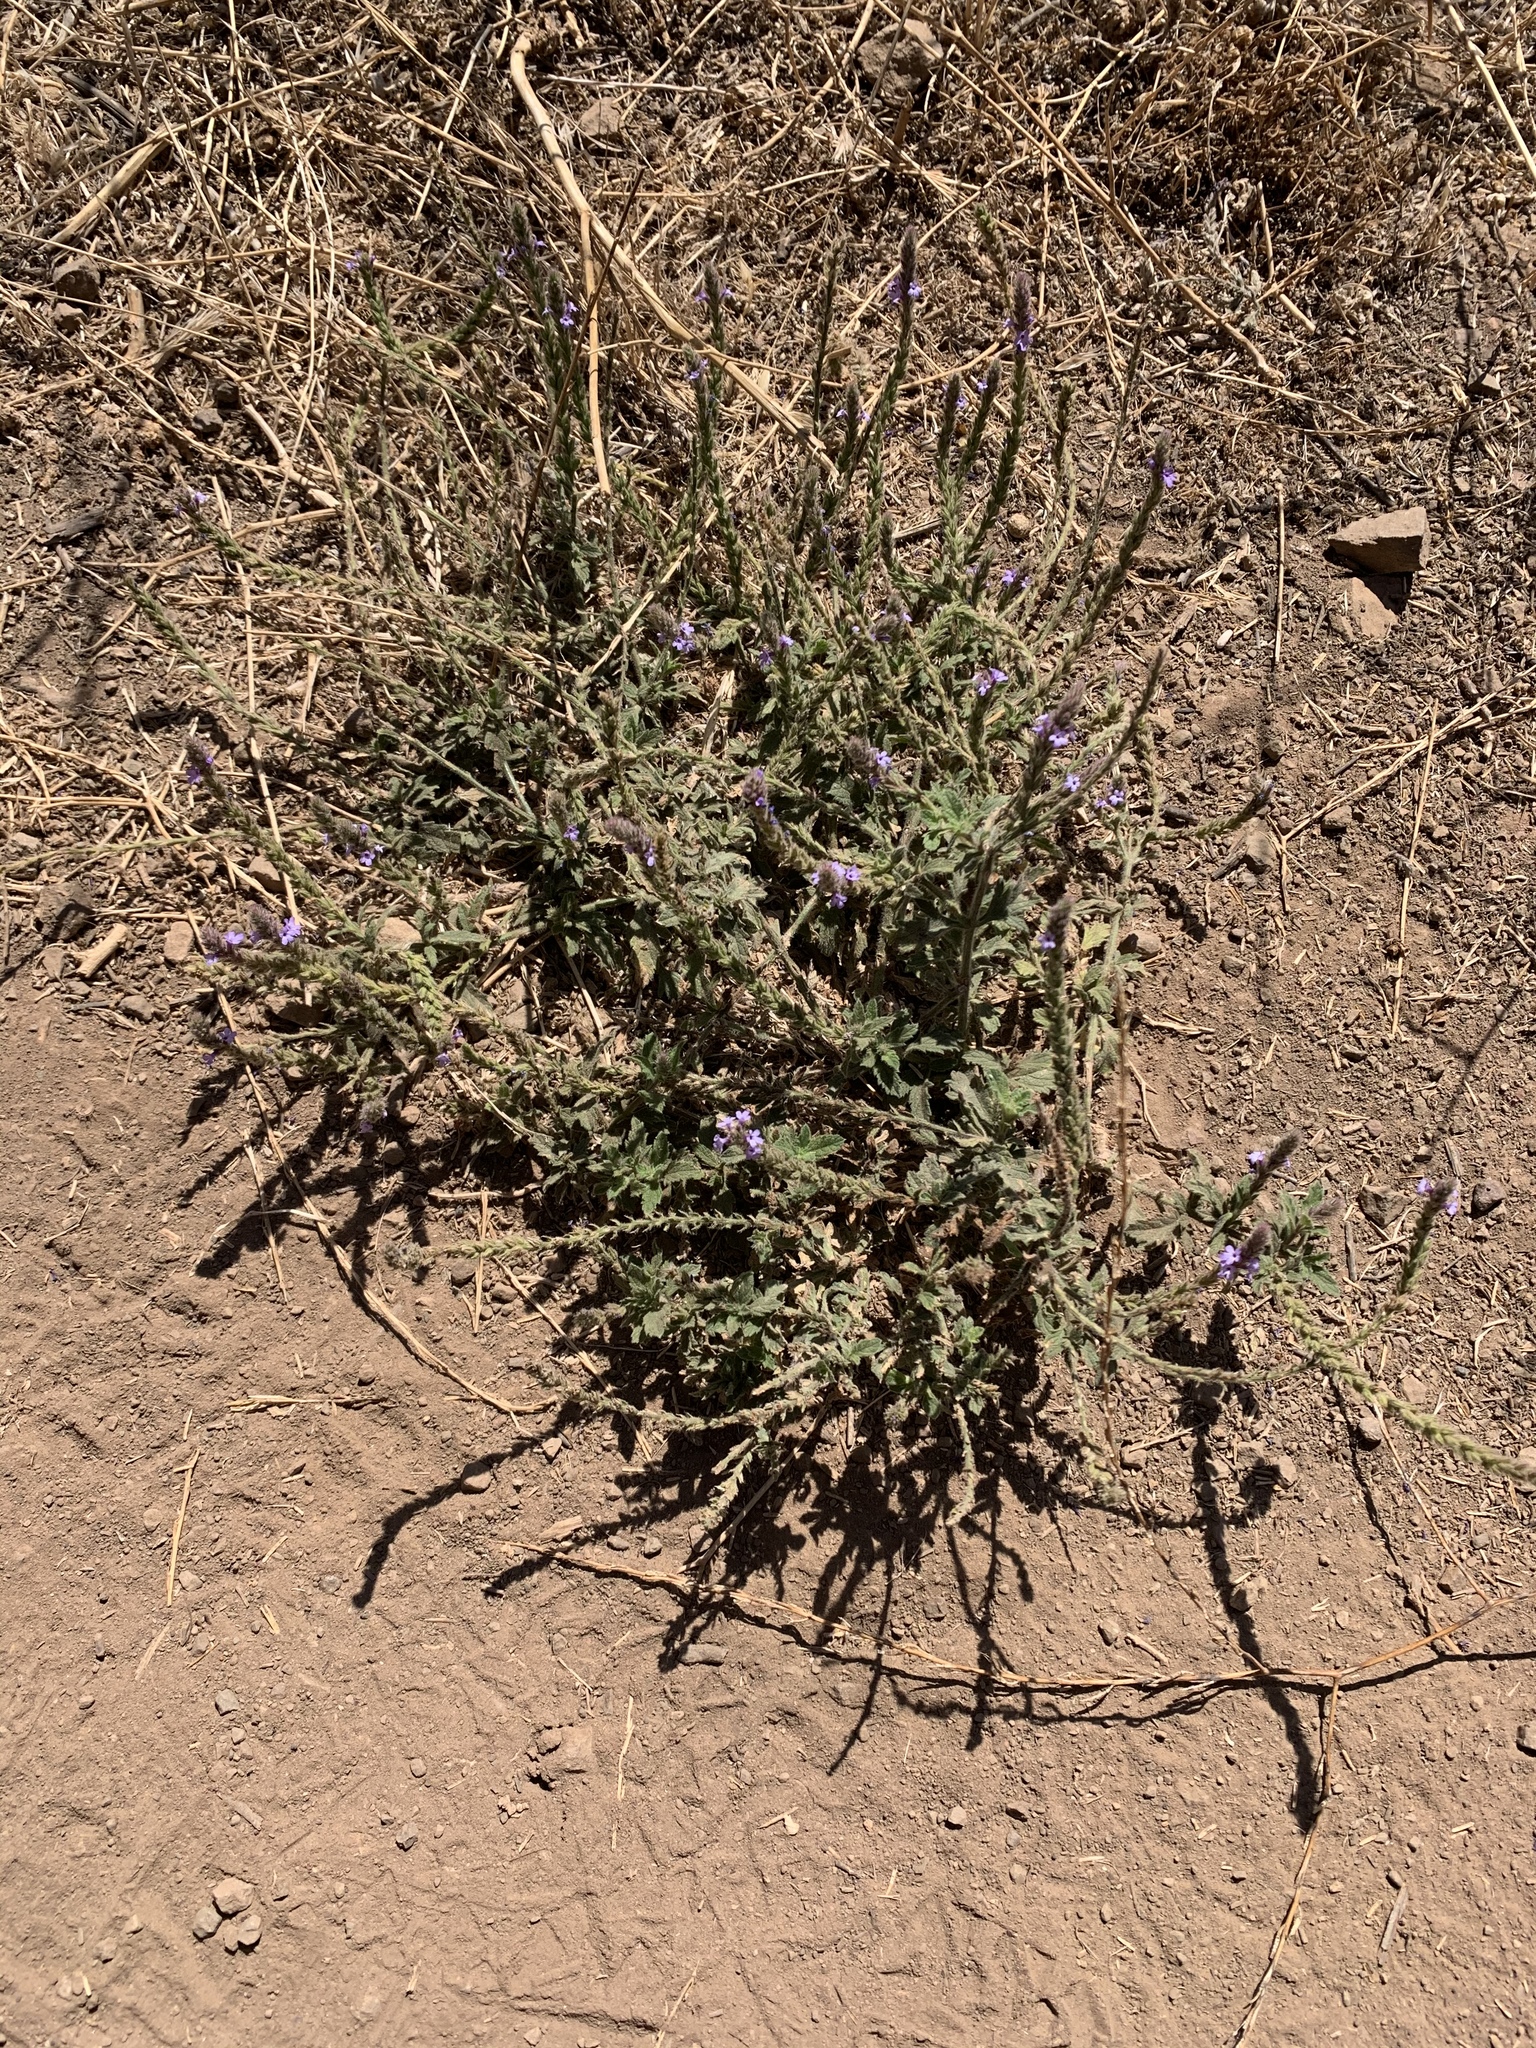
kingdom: Plantae
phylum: Tracheophyta
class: Magnoliopsida
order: Lamiales
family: Verbenaceae
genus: Verbena
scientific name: Verbena lasiostachys
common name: Vervain
